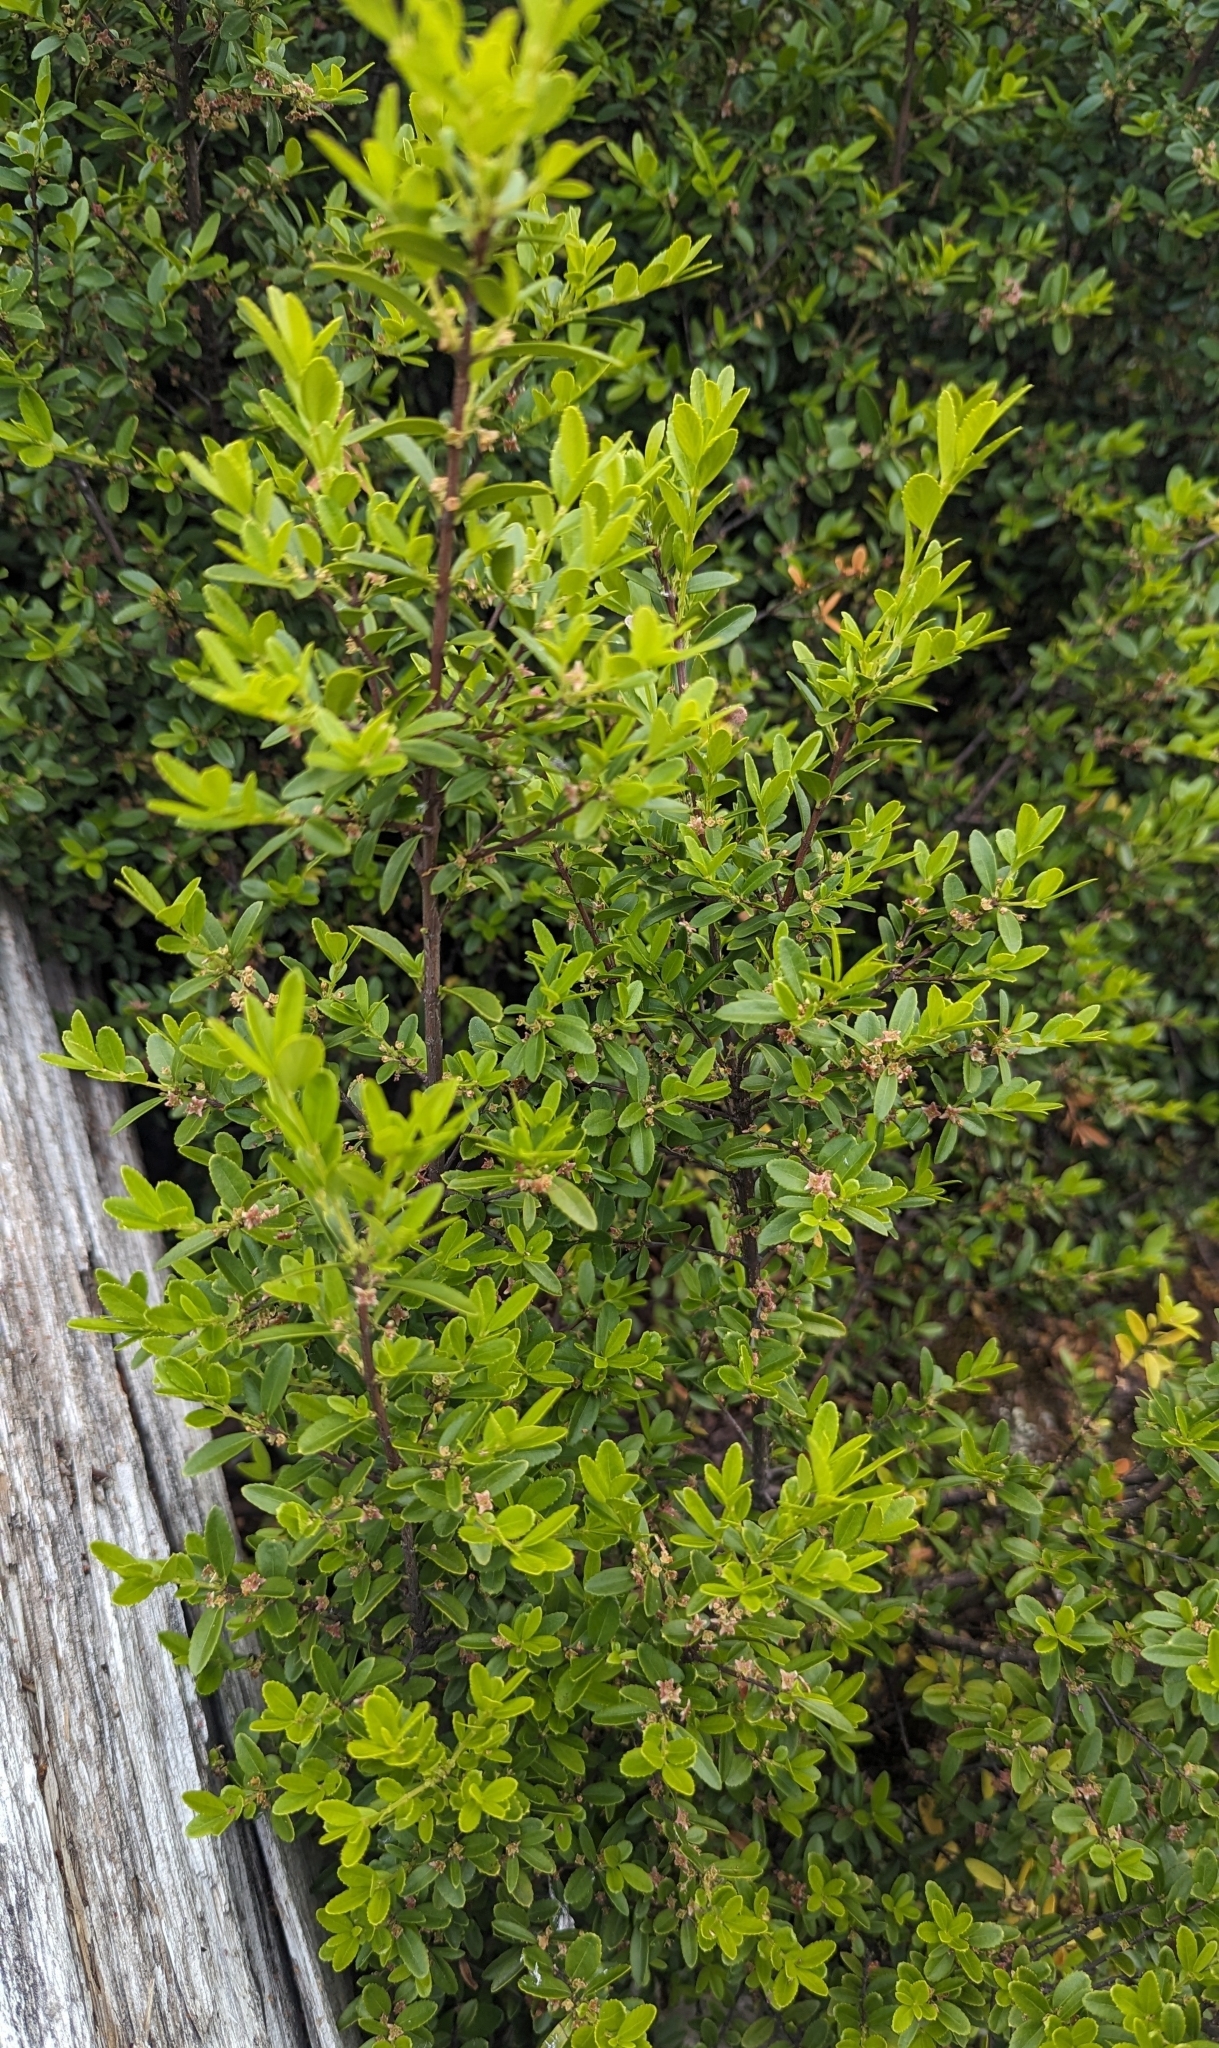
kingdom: Plantae
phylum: Tracheophyta
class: Magnoliopsida
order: Celastrales
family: Celastraceae
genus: Paxistima
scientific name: Paxistima myrsinites
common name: Mountain-lover
